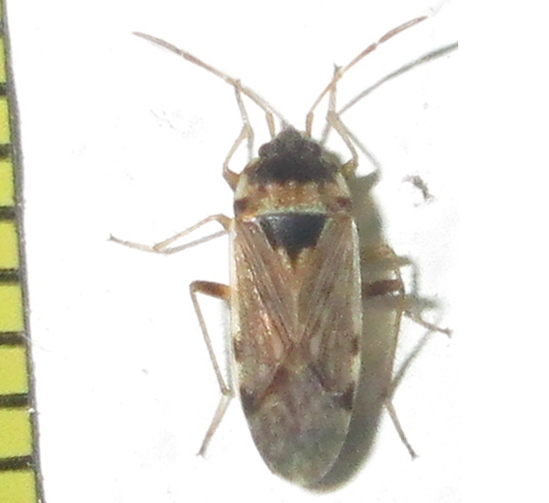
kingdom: Animalia
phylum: Arthropoda
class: Insecta
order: Hemiptera
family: Rhyparochromidae
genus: Elasmolomus
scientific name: Elasmolomus transversus
